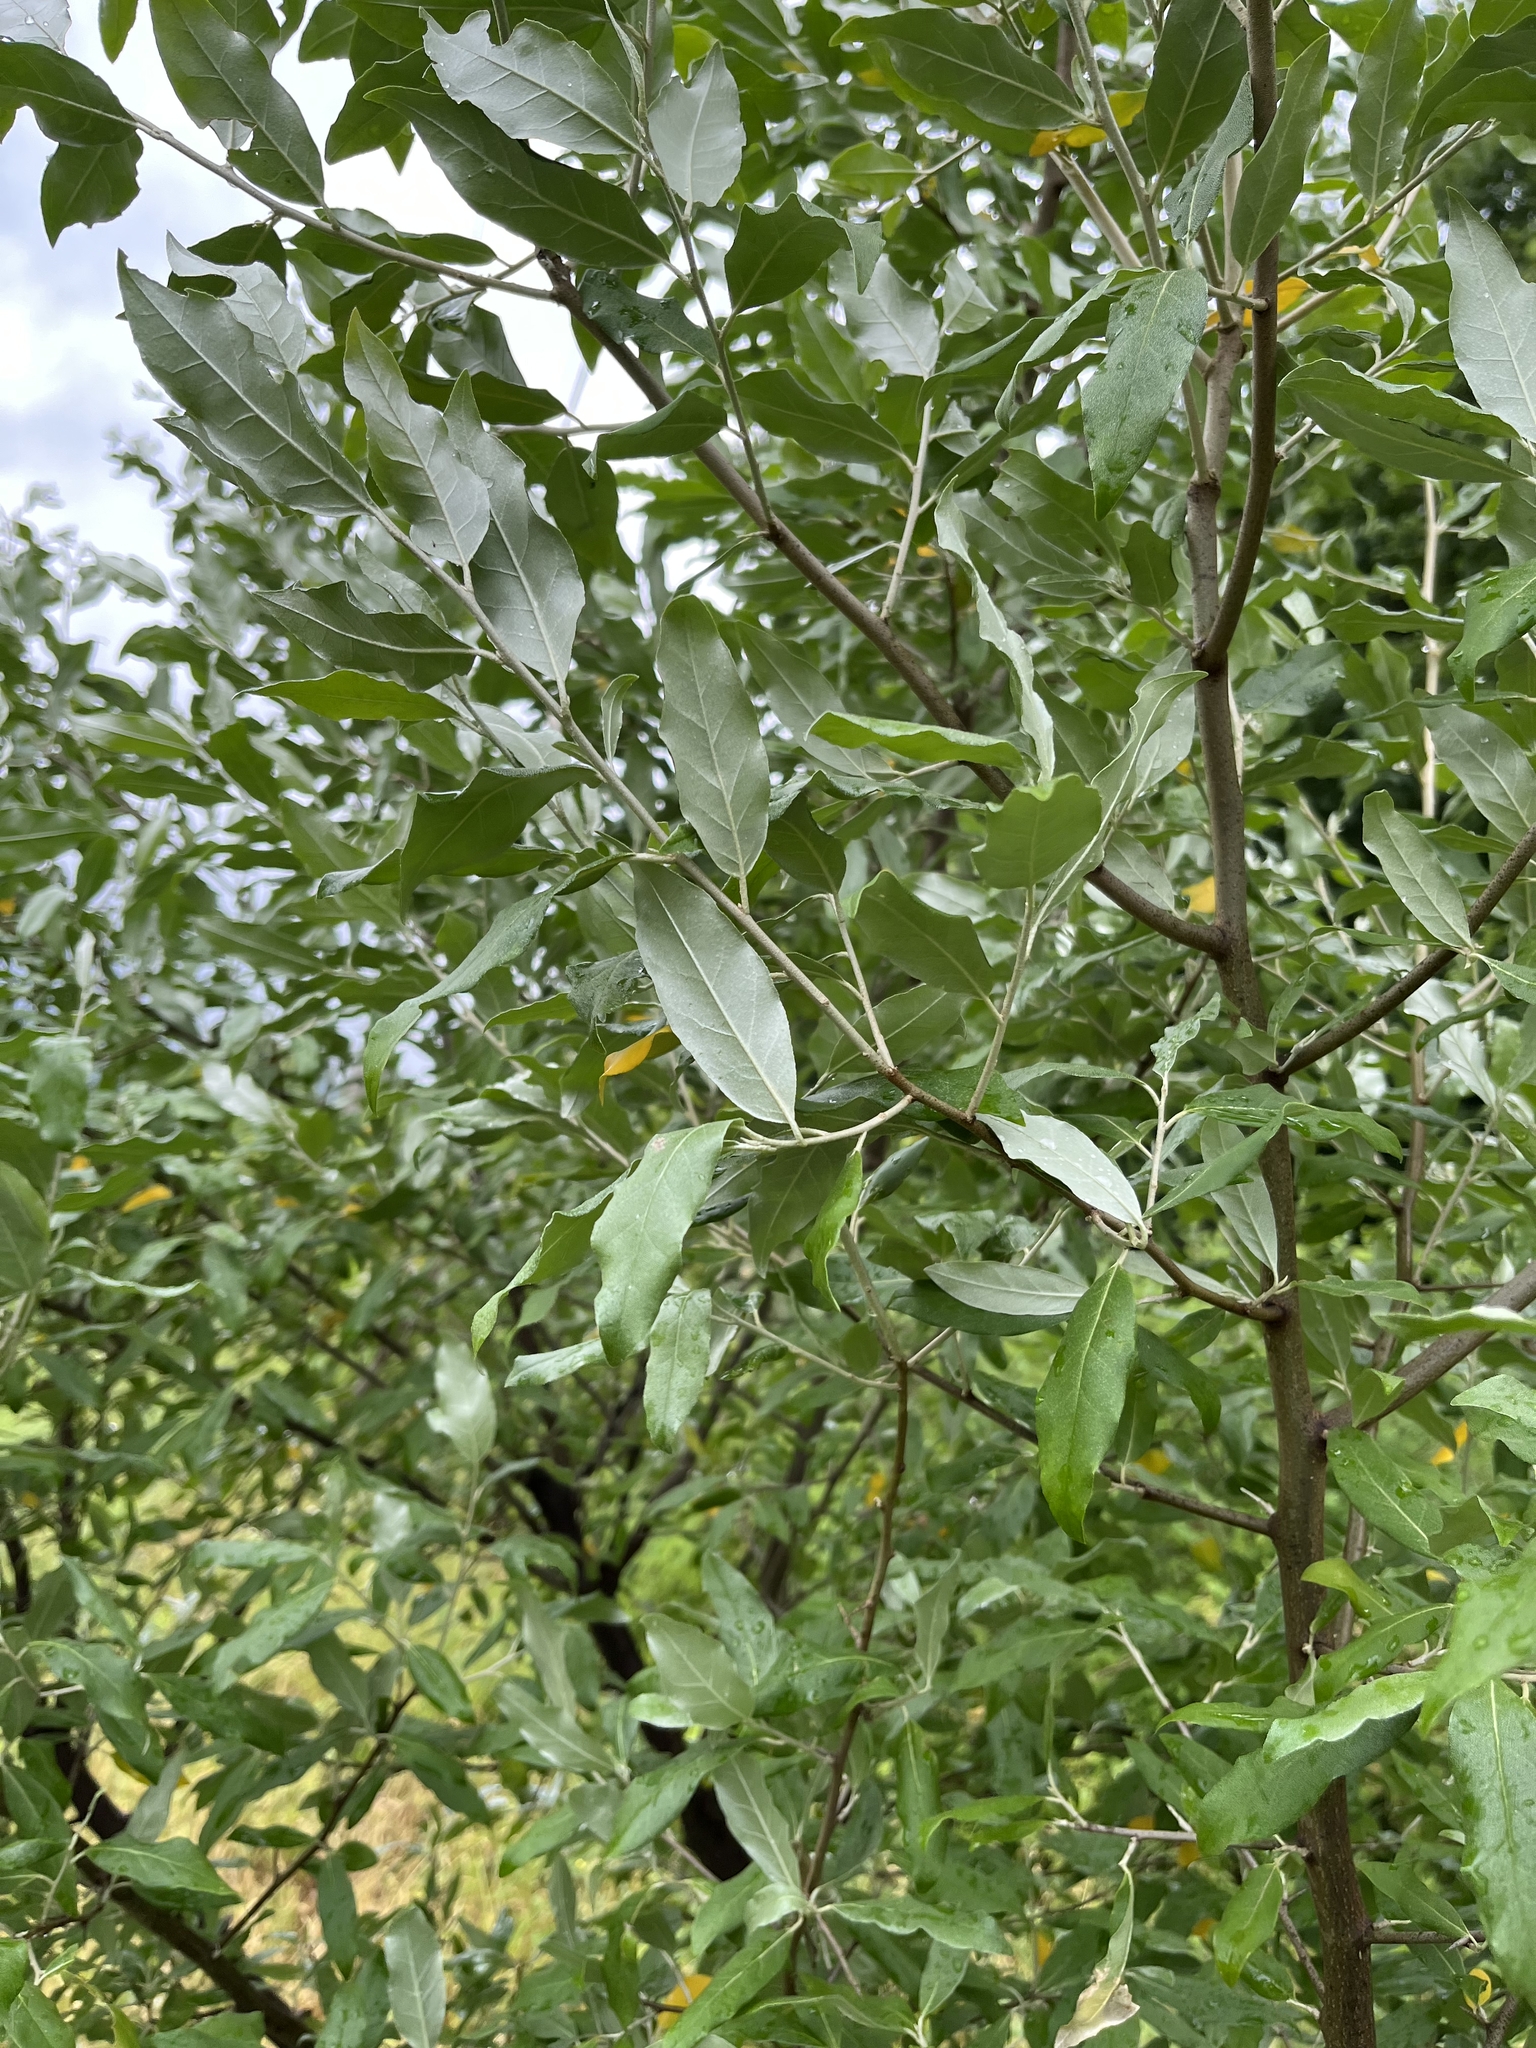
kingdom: Plantae
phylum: Tracheophyta
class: Magnoliopsida
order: Rosales
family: Elaeagnaceae
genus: Elaeagnus
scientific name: Elaeagnus umbellata
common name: Autumn olive
